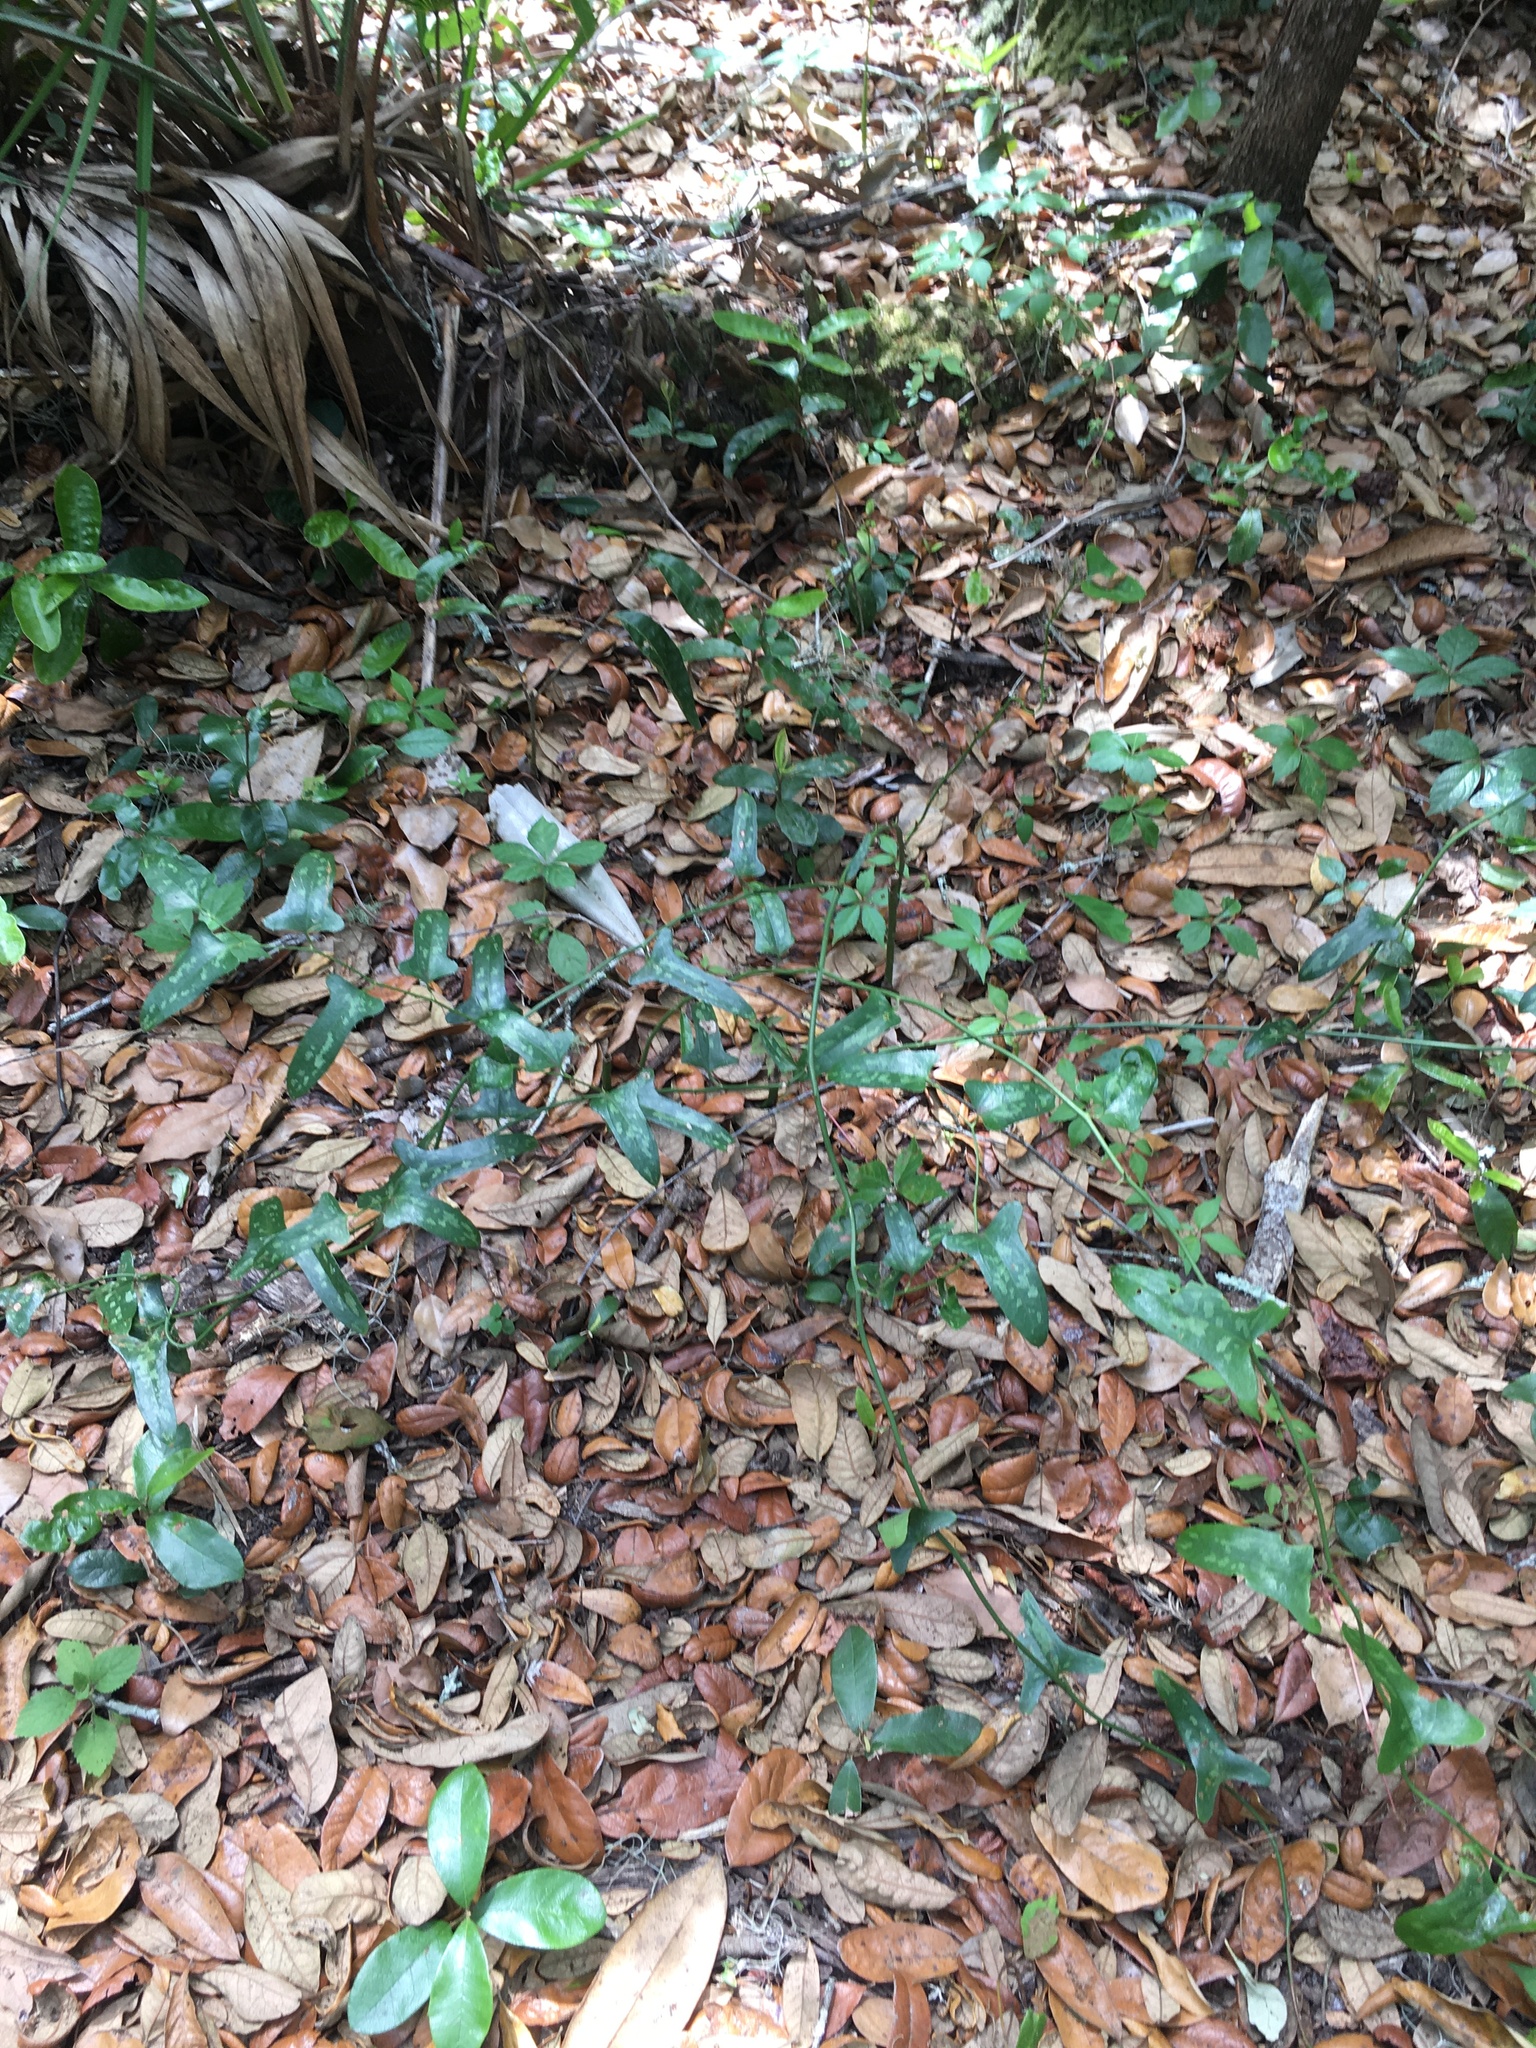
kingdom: Plantae
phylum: Tracheophyta
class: Liliopsida
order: Liliales
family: Smilacaceae
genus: Smilax
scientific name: Smilax bona-nox
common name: Catbrier
